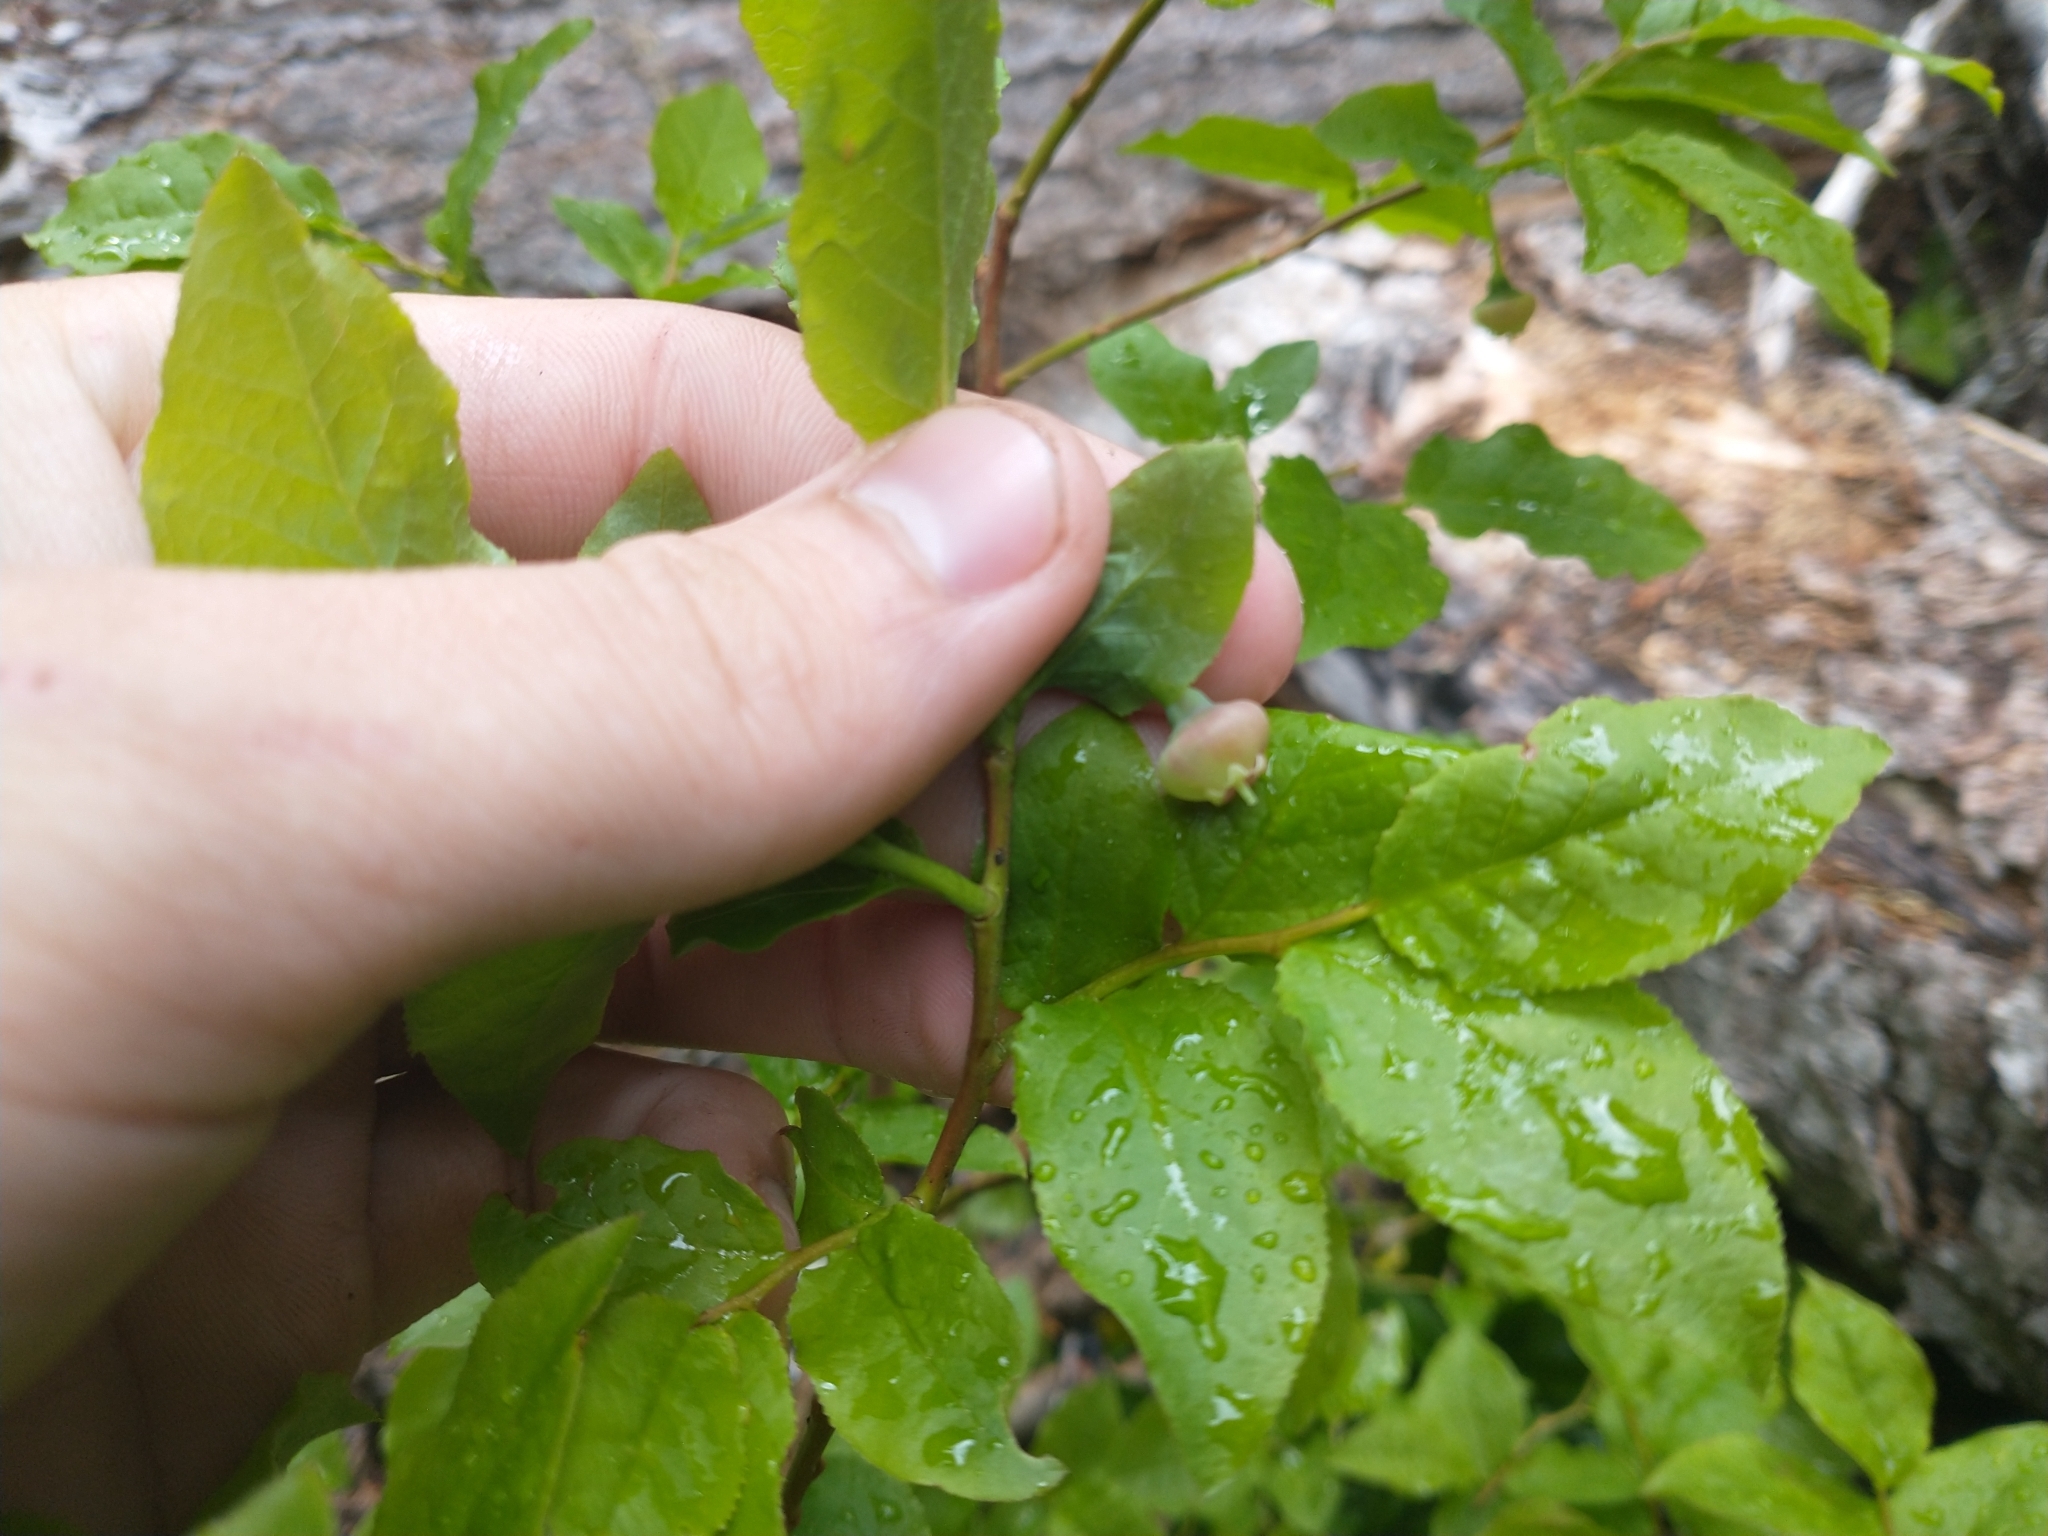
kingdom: Plantae
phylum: Tracheophyta
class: Magnoliopsida
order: Ericales
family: Ericaceae
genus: Vaccinium
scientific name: Vaccinium membranaceum
